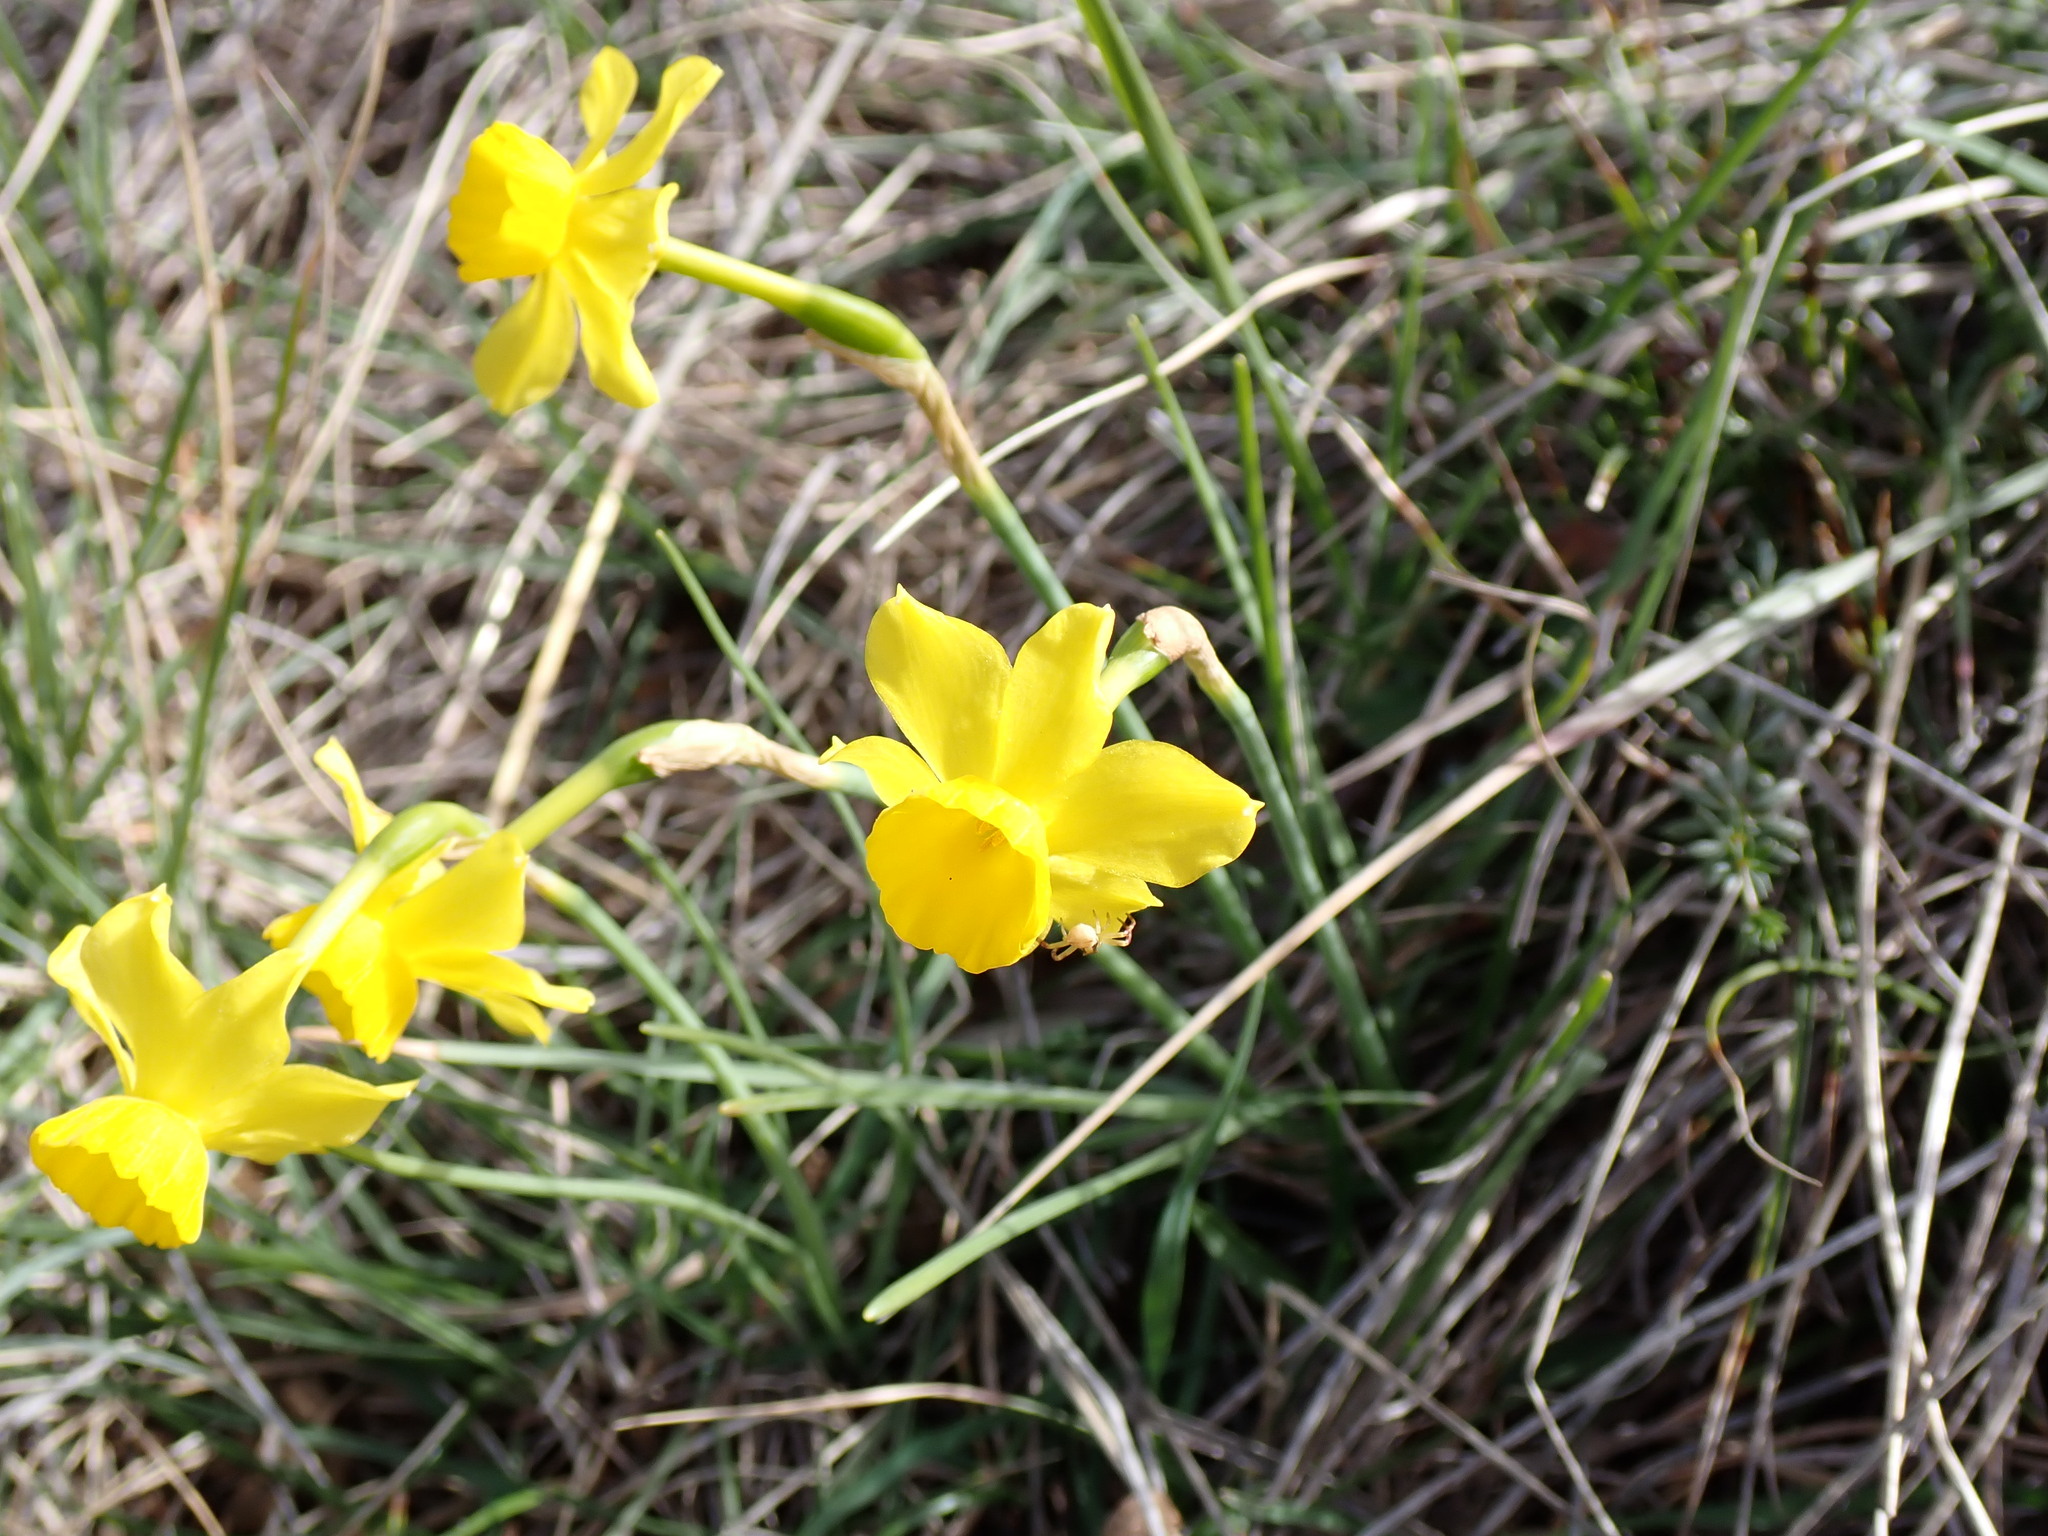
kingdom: Plantae
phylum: Tracheophyta
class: Liliopsida
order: Asparagales
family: Amaryllidaceae
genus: Narcissus
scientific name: Narcissus assoanus
